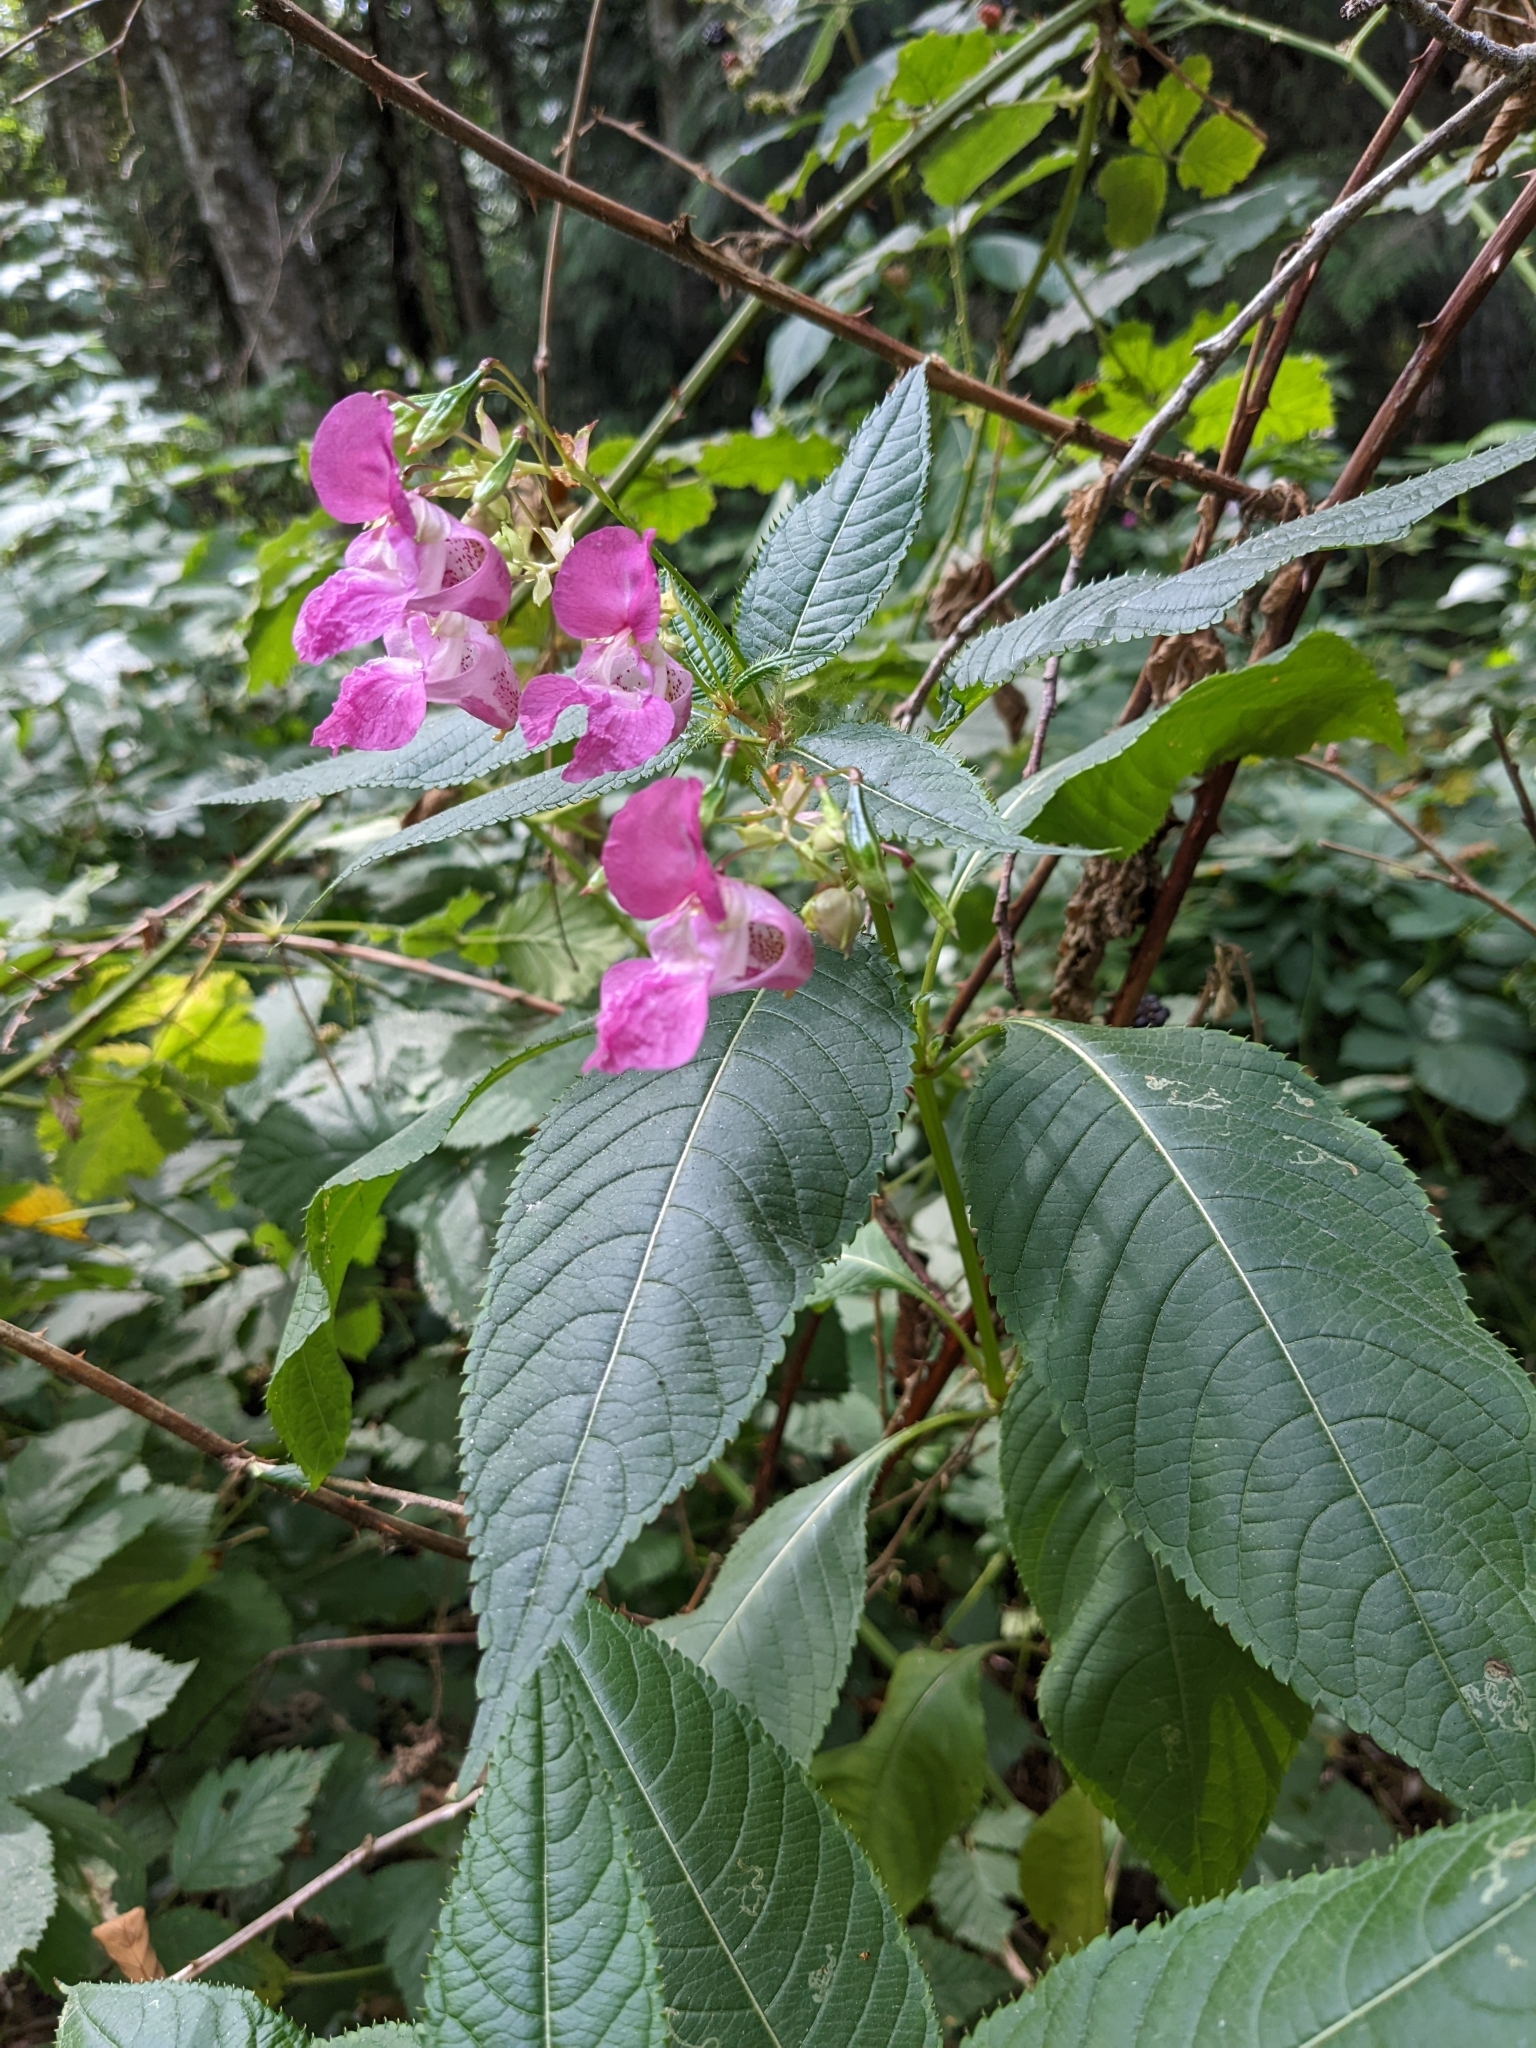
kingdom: Plantae
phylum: Tracheophyta
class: Magnoliopsida
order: Ericales
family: Balsaminaceae
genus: Impatiens
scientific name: Impatiens glandulifera
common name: Himalayan balsam
